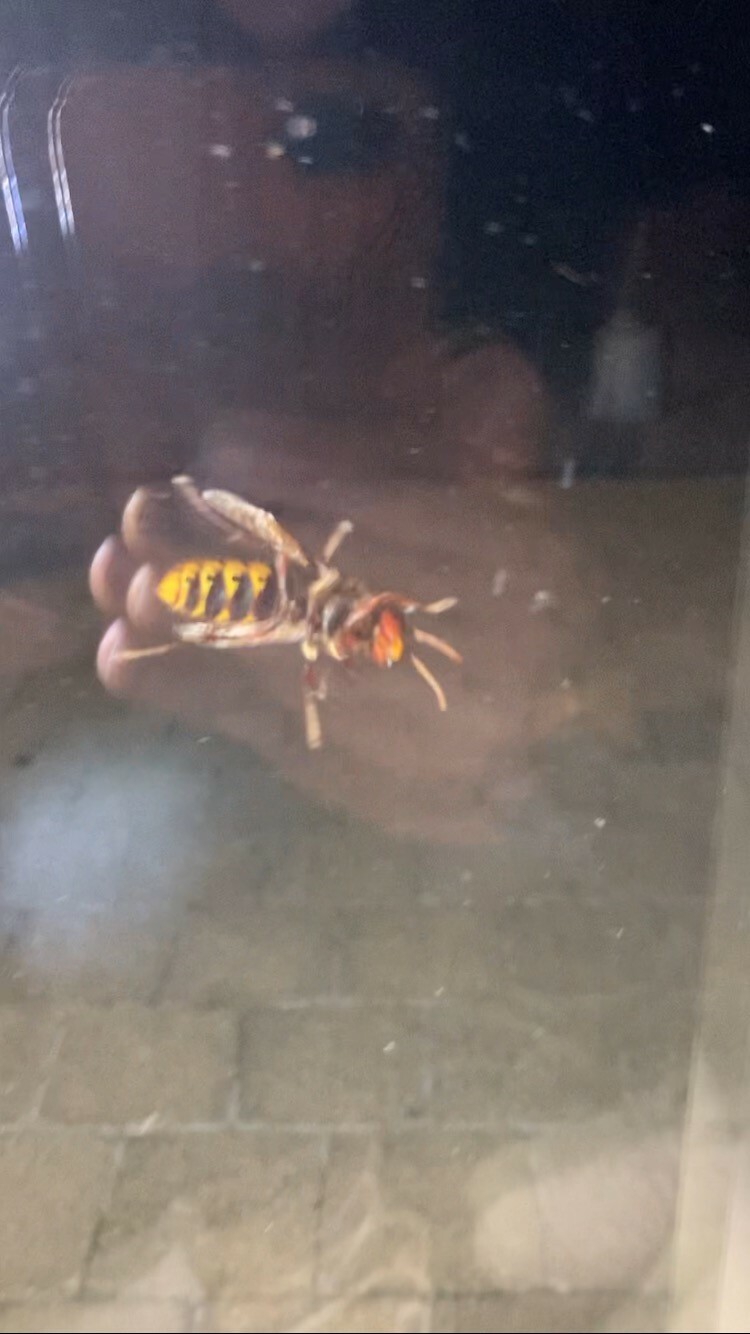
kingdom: Animalia
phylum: Arthropoda
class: Insecta
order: Hymenoptera
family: Vespidae
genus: Vespa
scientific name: Vespa crabro
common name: Hornet
